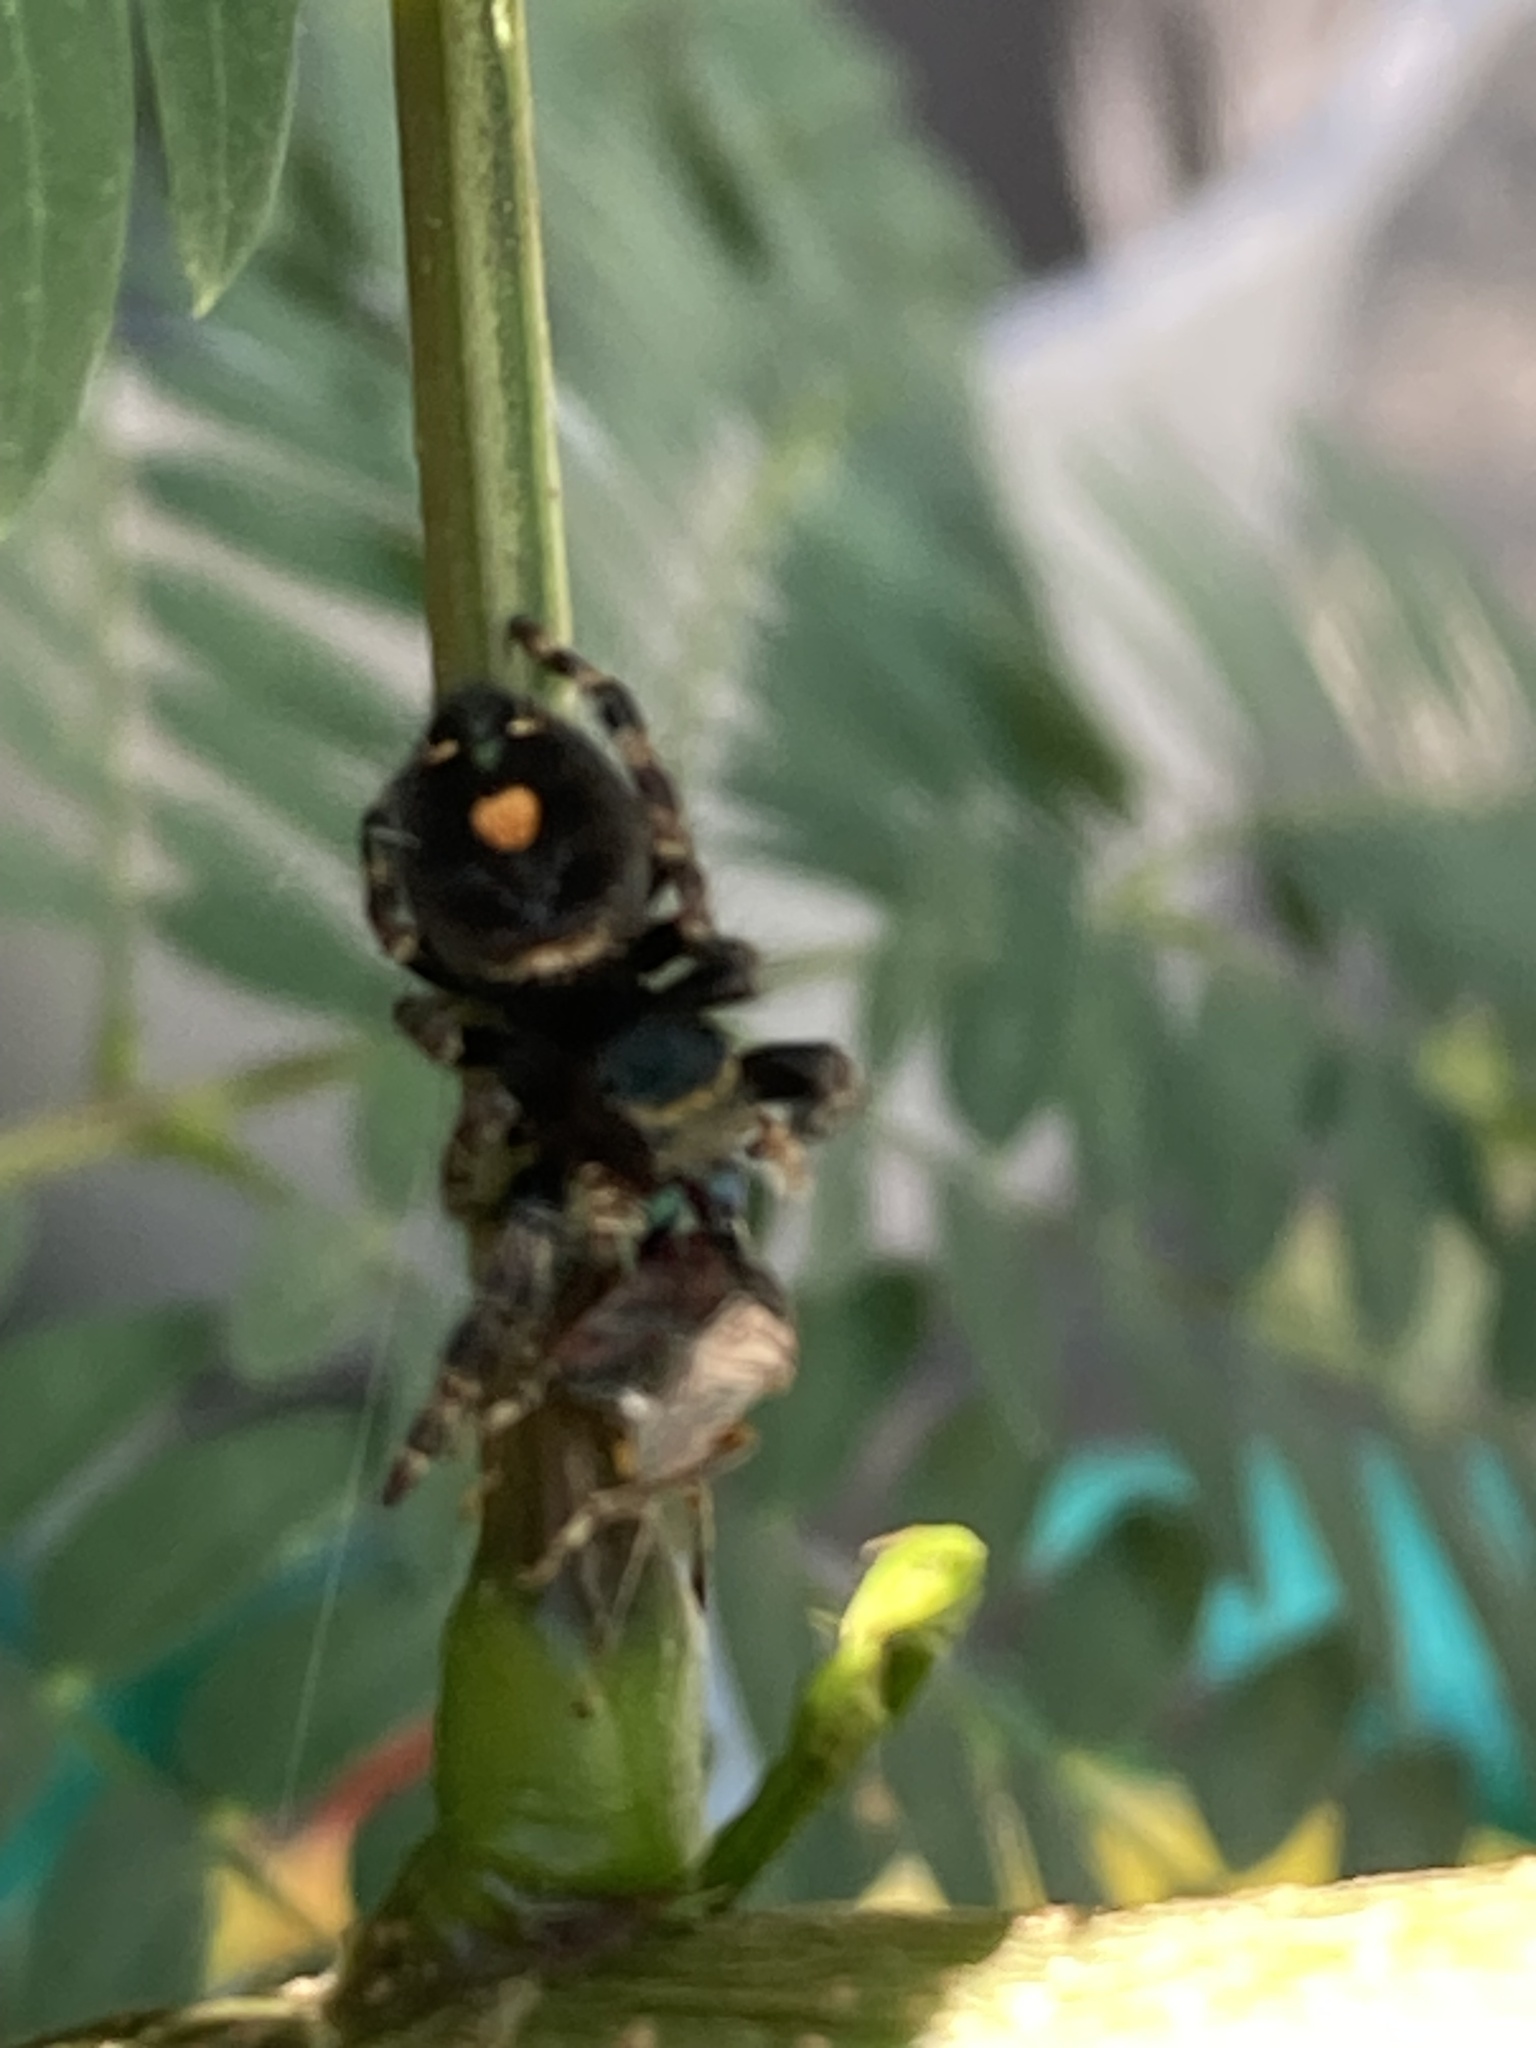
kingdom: Animalia
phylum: Arthropoda
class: Arachnida
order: Araneae
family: Salticidae
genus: Phidippus
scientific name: Phidippus audax
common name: Bold jumper
